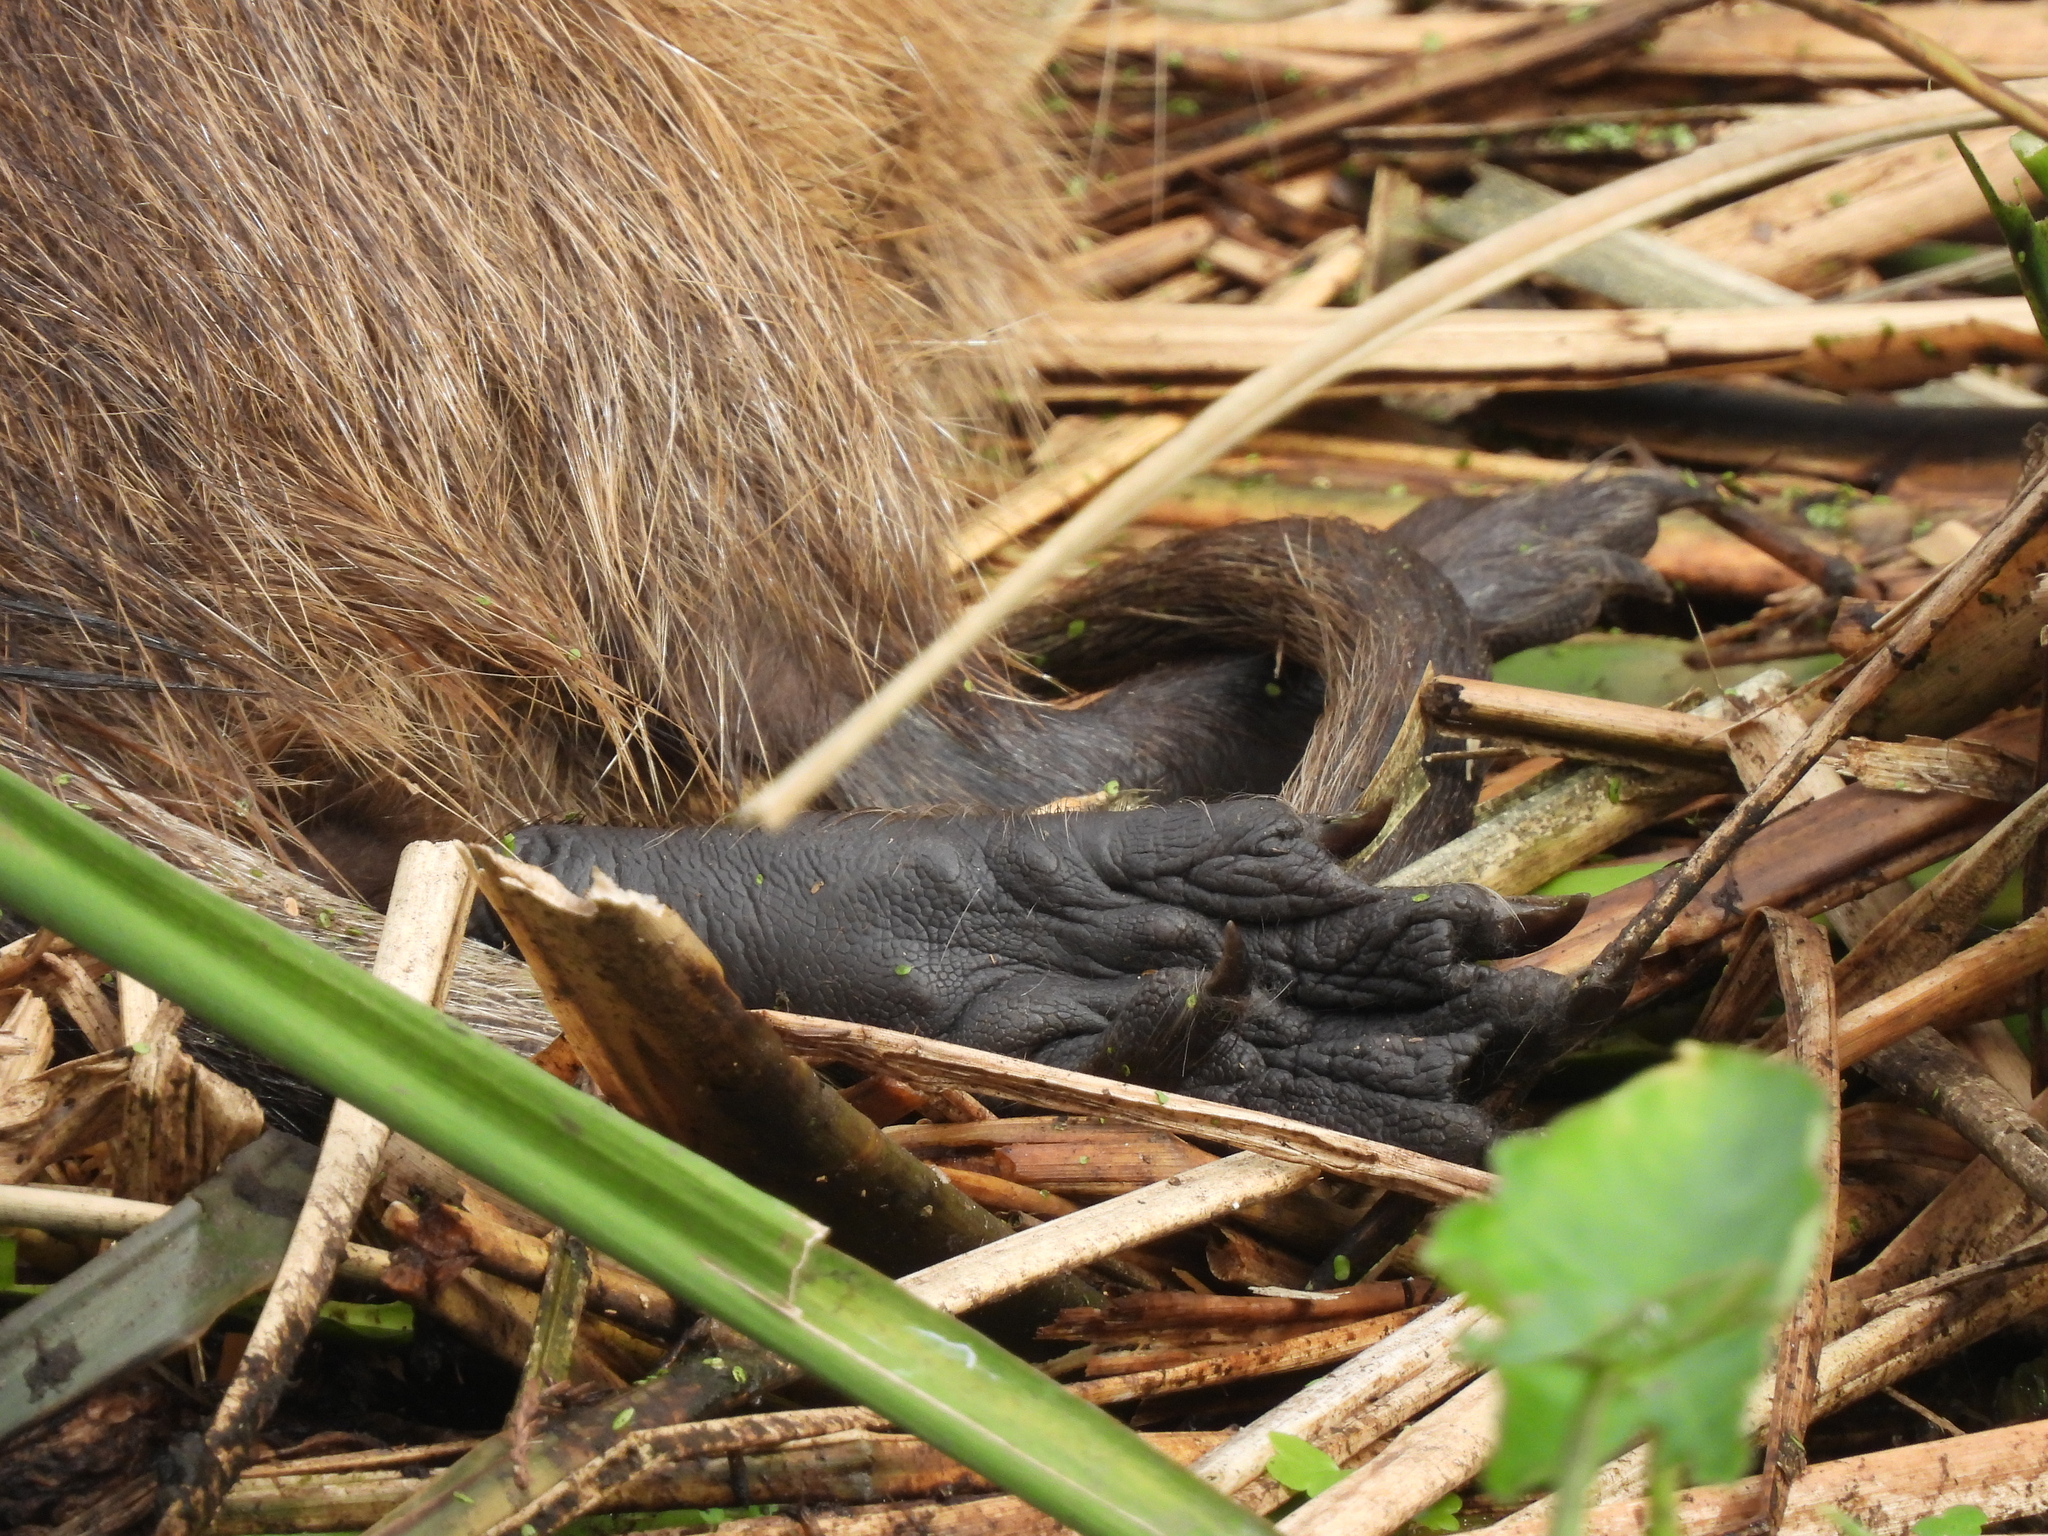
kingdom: Animalia
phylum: Chordata
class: Mammalia
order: Rodentia
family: Myocastoridae
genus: Myocastor
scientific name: Myocastor coypus
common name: Coypu
